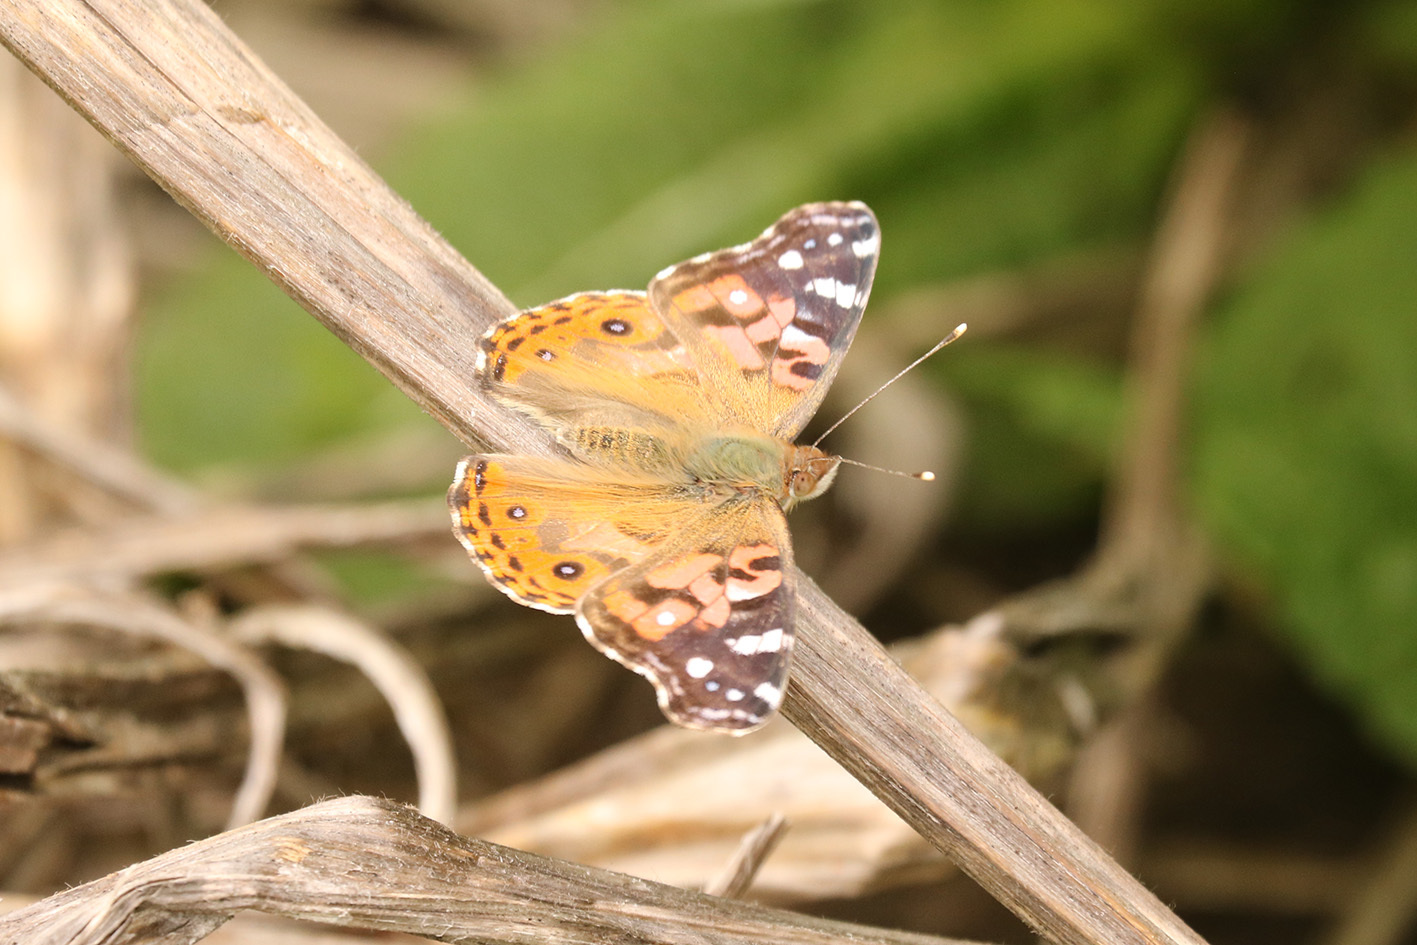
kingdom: Animalia
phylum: Arthropoda
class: Insecta
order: Lepidoptera
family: Nymphalidae
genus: Vanessa
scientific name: Vanessa braziliensis
